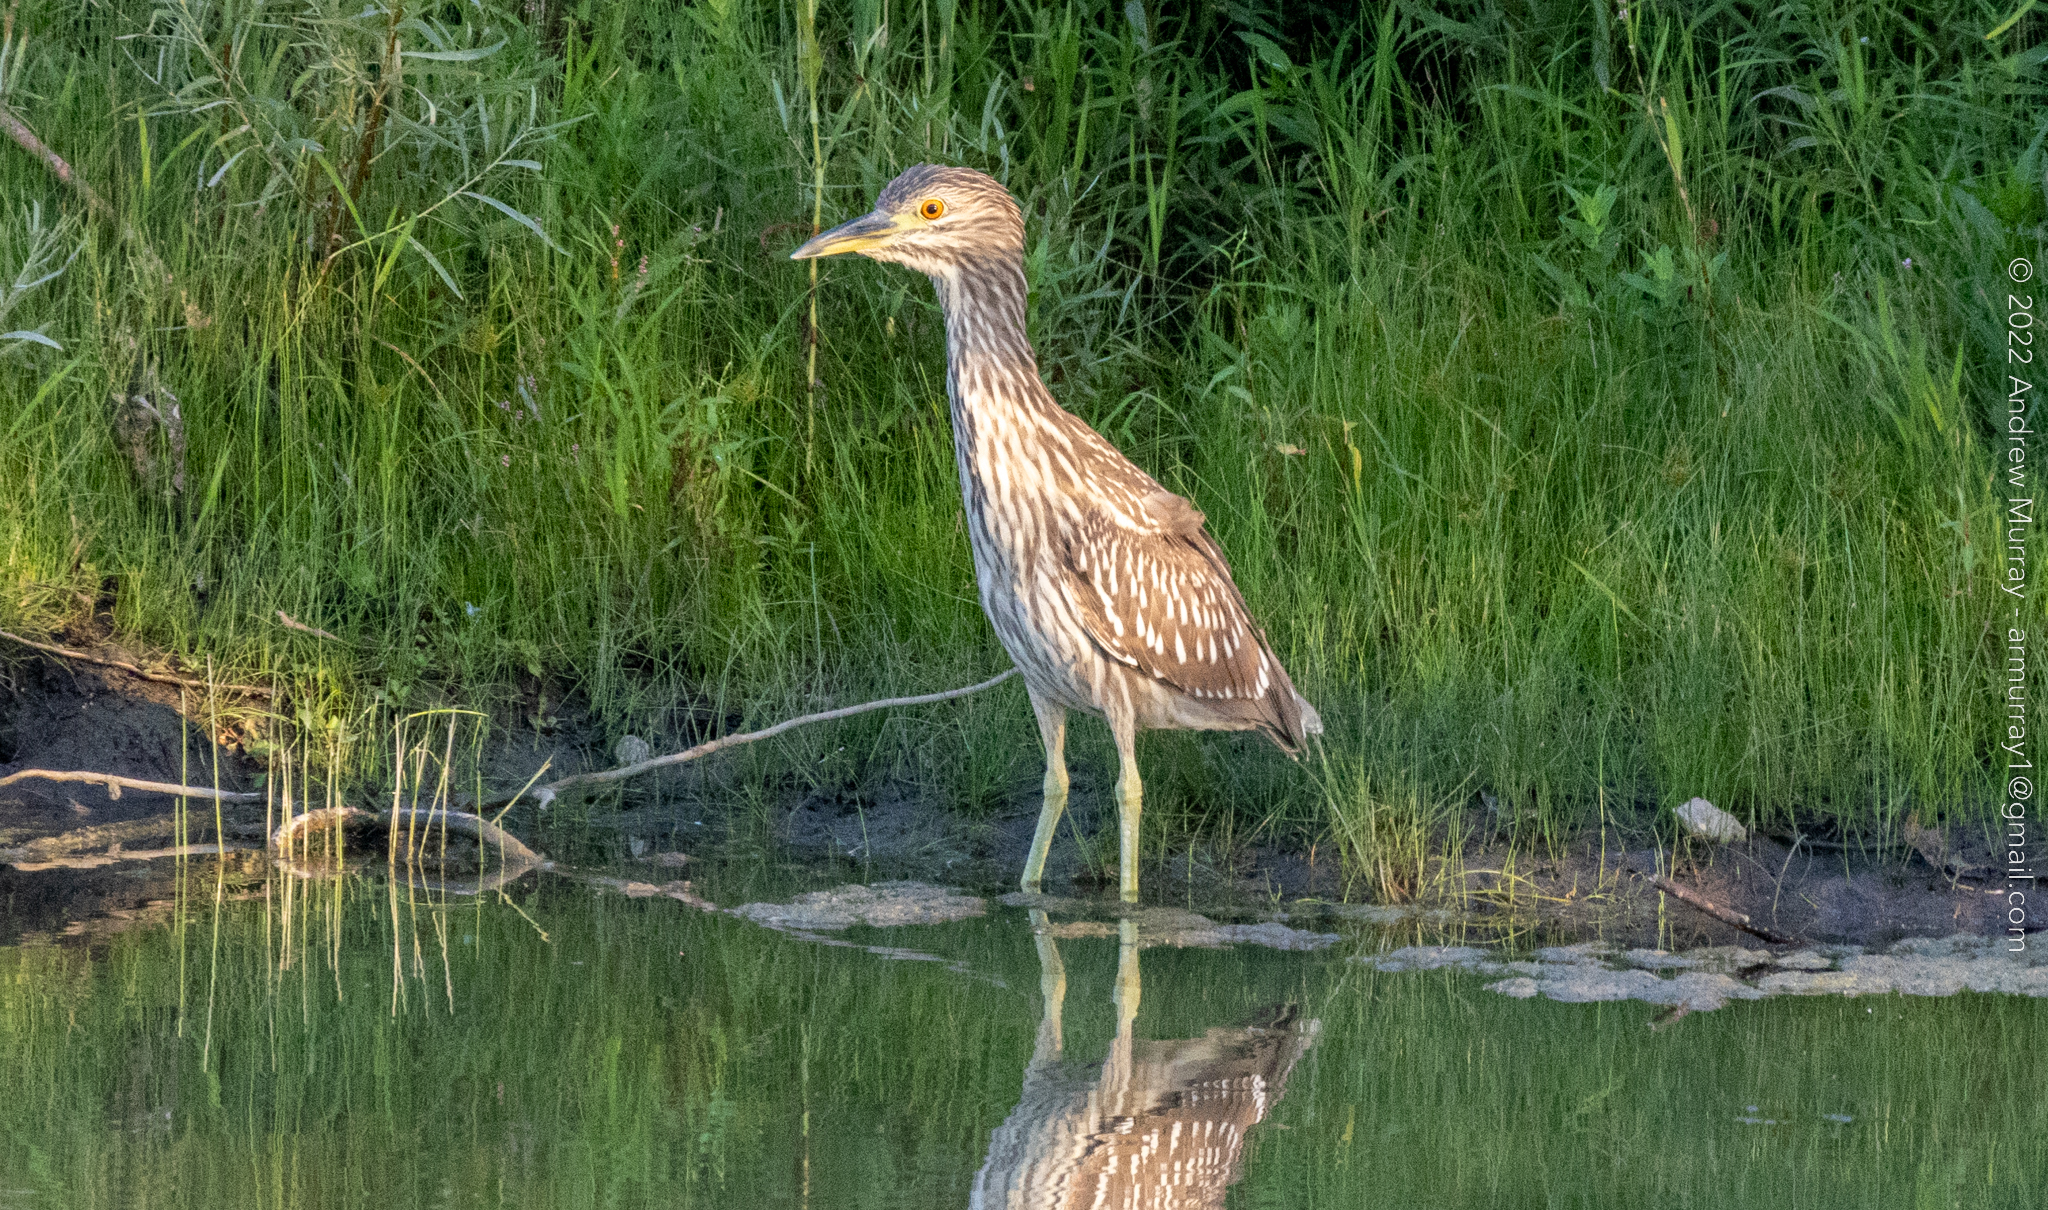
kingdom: Animalia
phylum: Chordata
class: Aves
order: Pelecaniformes
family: Ardeidae
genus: Nycticorax
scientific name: Nycticorax nycticorax
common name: Black-crowned night heron
